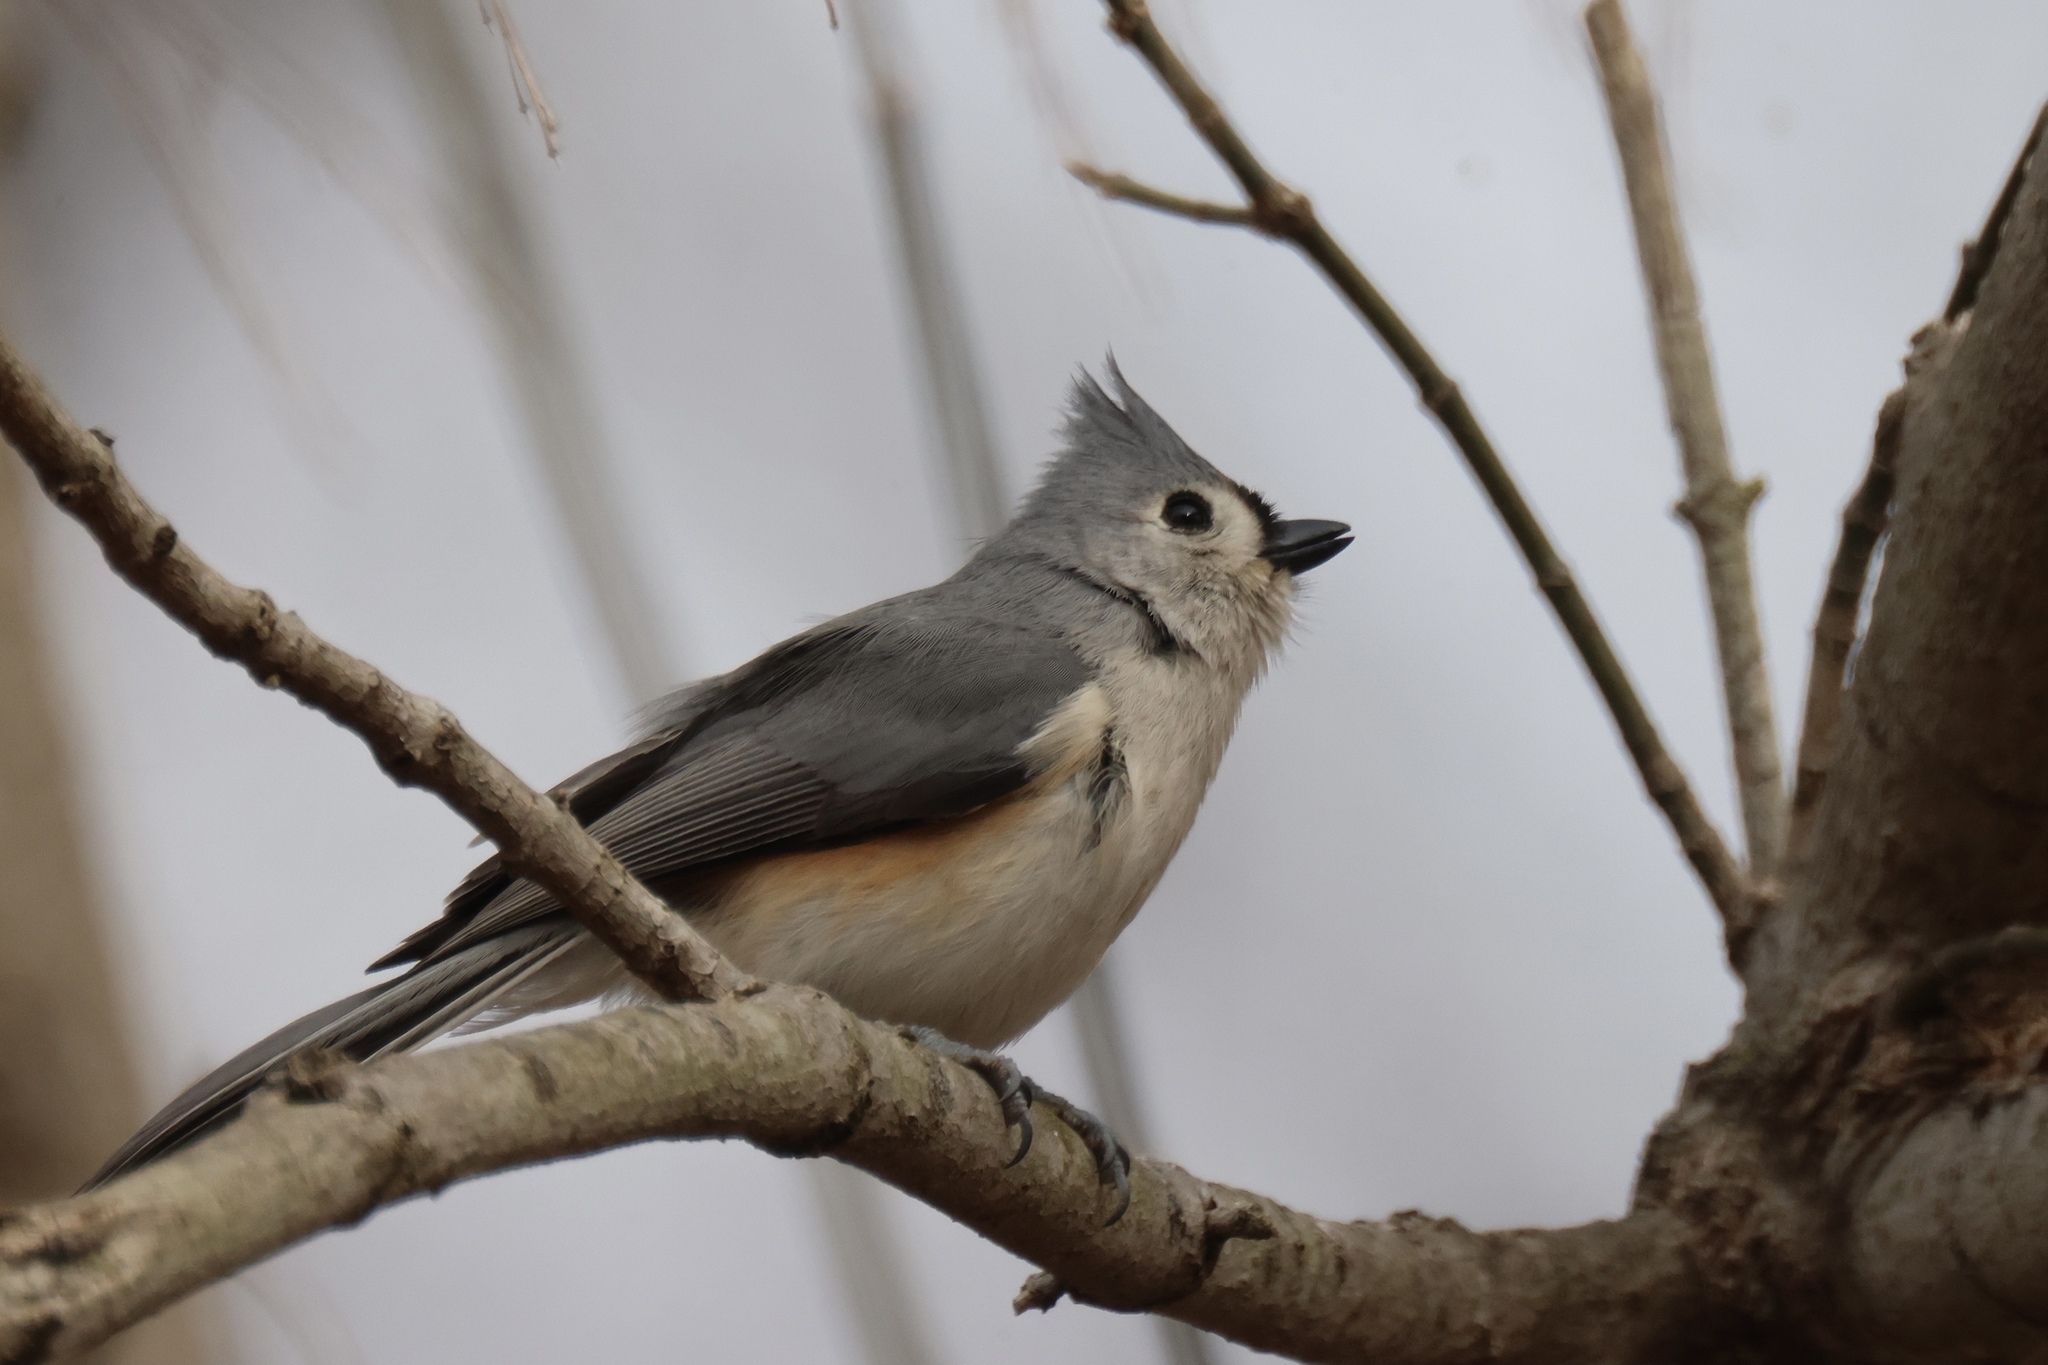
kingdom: Animalia
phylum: Chordata
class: Aves
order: Passeriformes
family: Paridae
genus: Baeolophus
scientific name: Baeolophus bicolor
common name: Tufted titmouse
